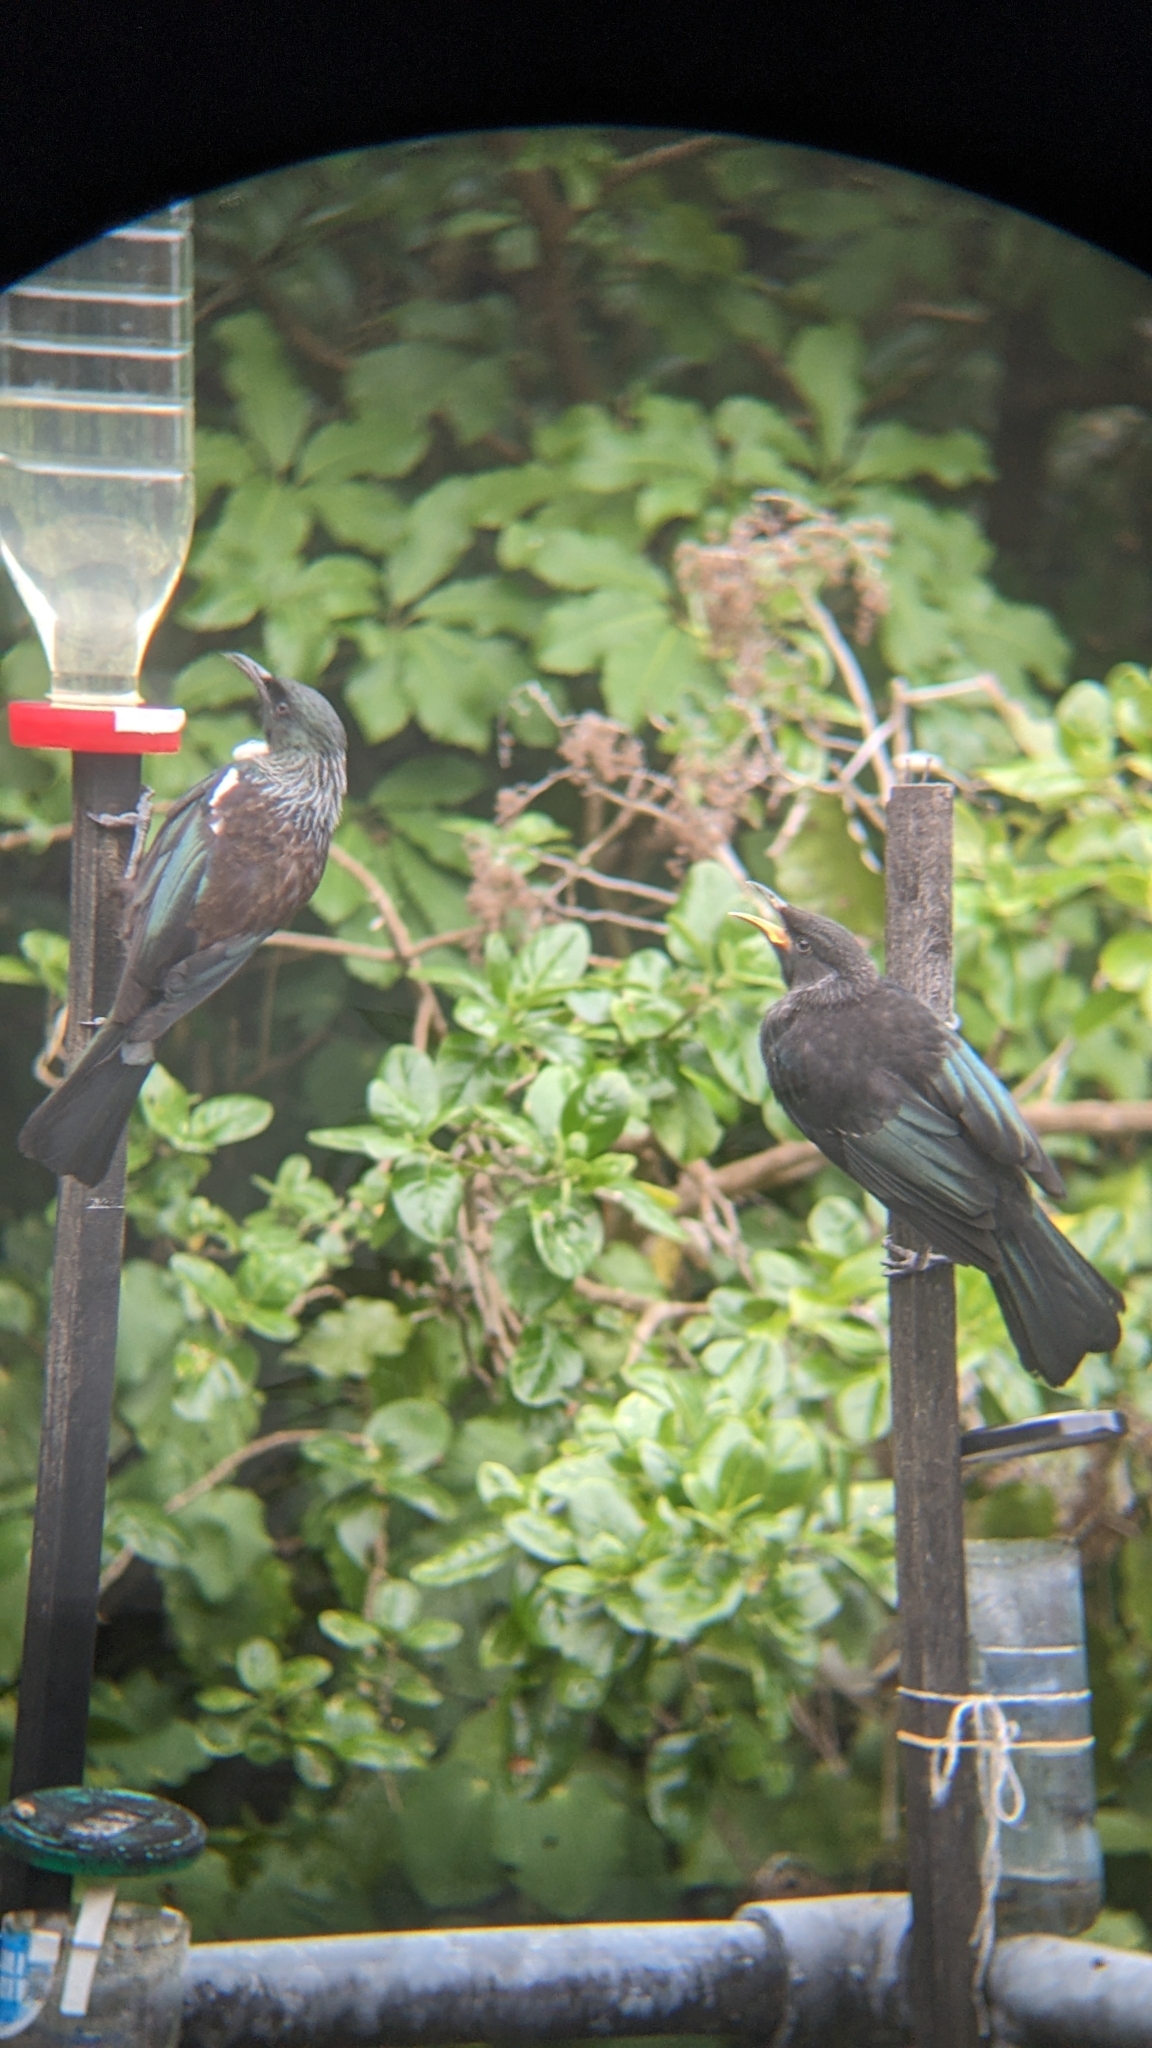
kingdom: Animalia
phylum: Chordata
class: Aves
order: Passeriformes
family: Meliphagidae
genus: Prosthemadera
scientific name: Prosthemadera novaeseelandiae
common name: Tui
